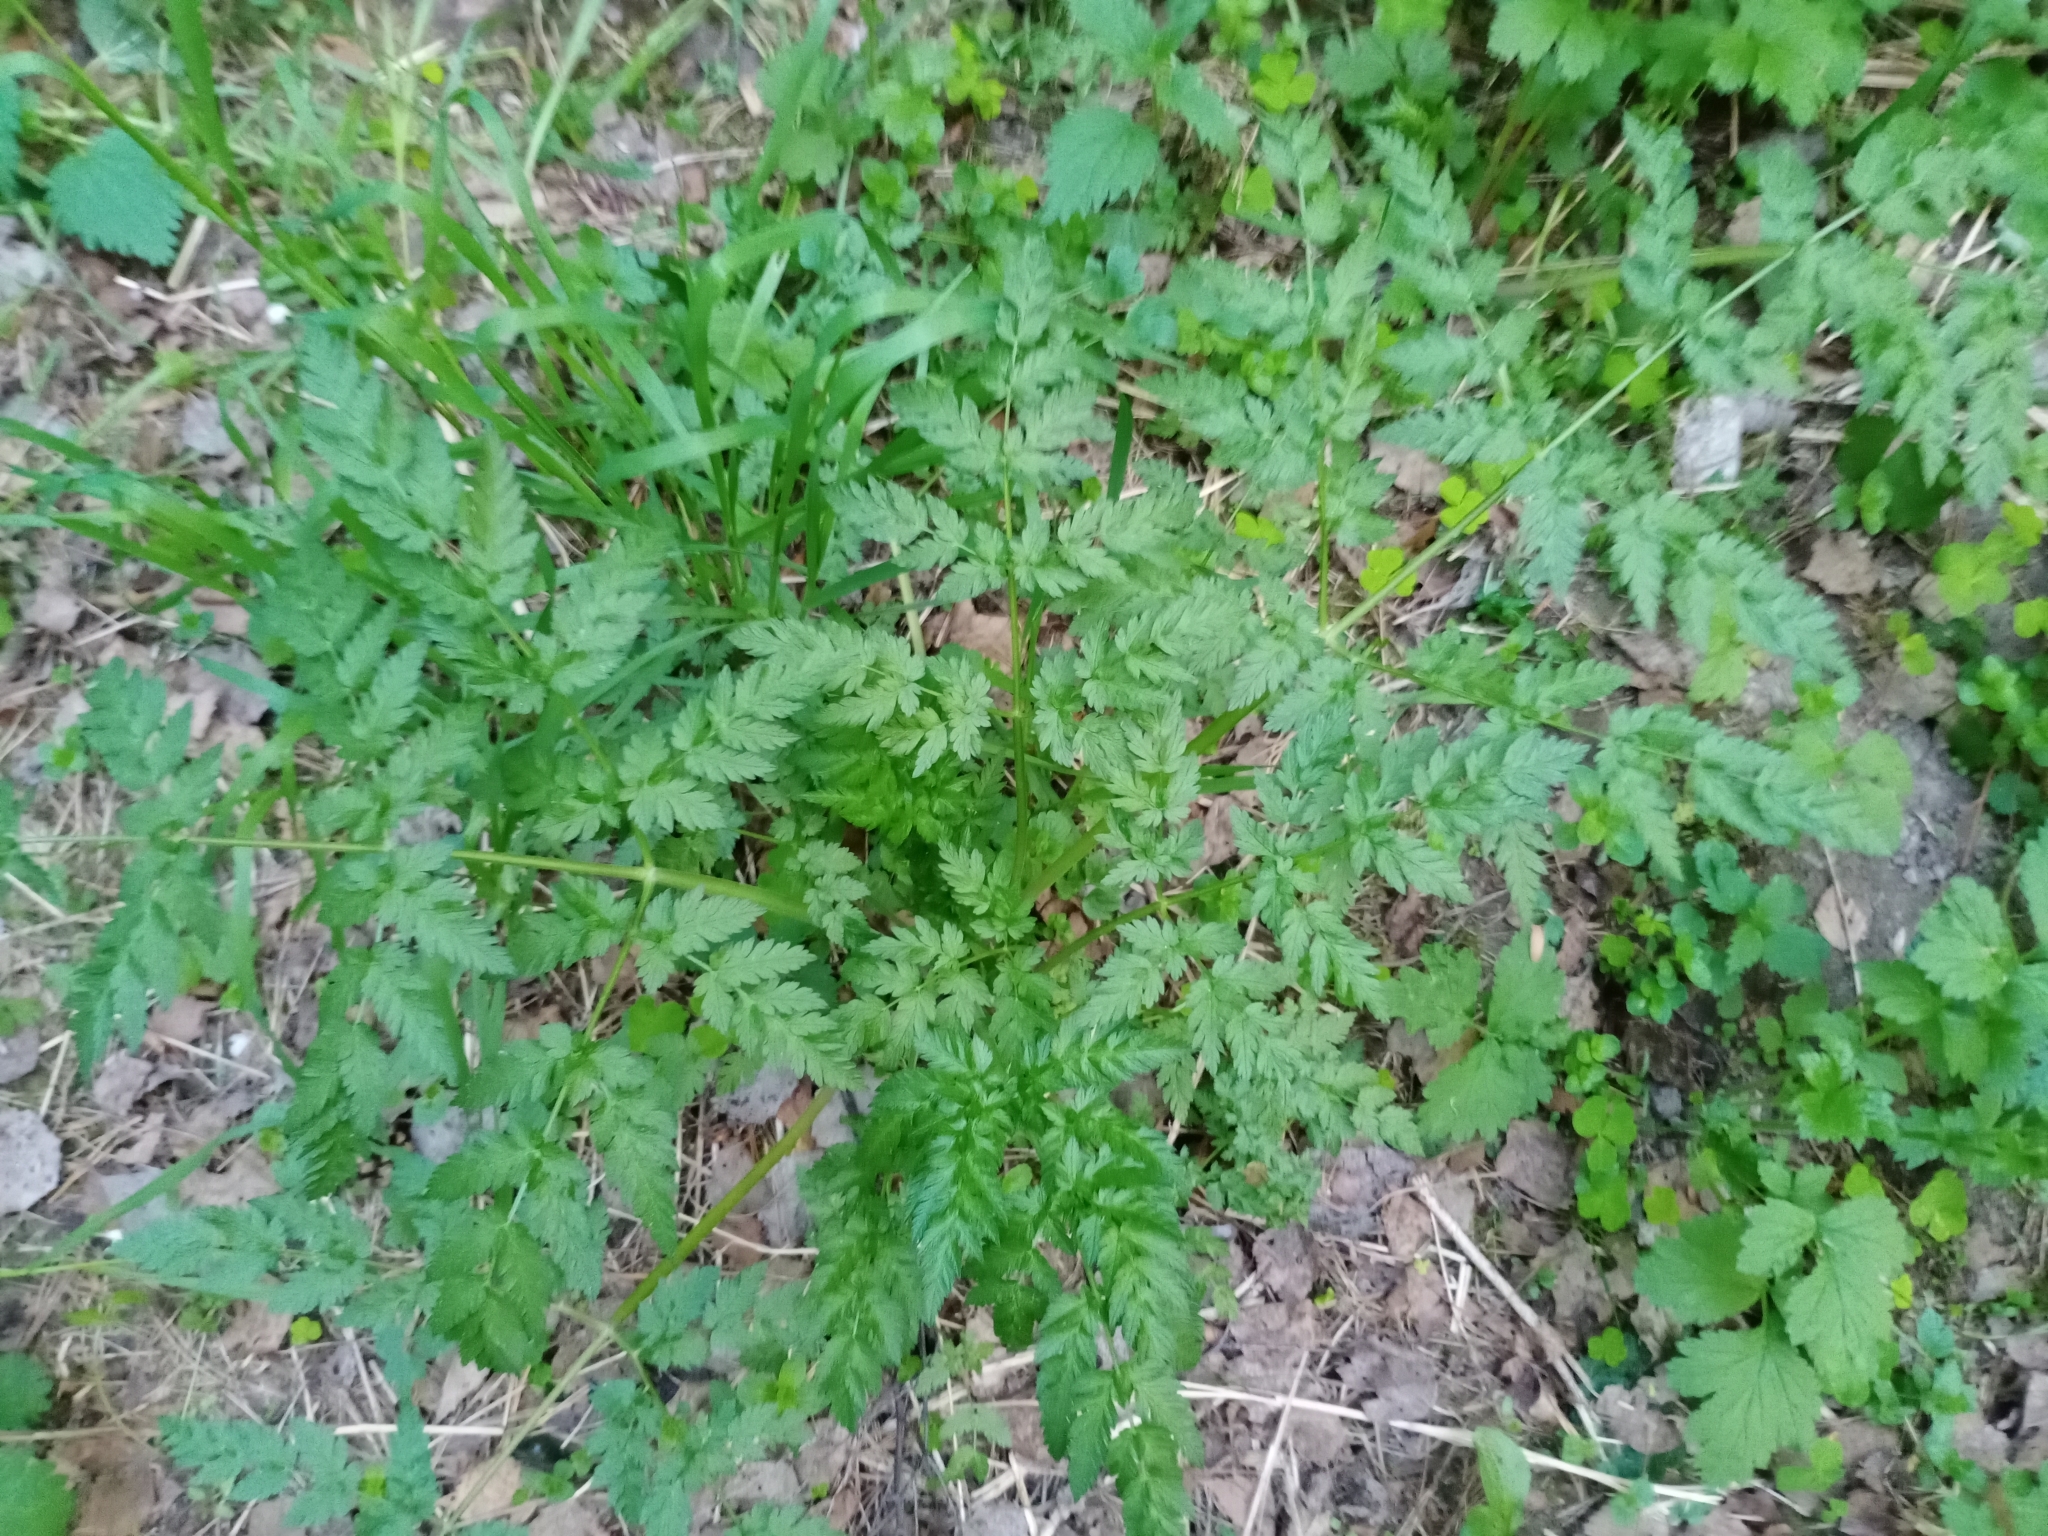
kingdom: Plantae
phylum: Tracheophyta
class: Magnoliopsida
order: Apiales
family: Apiaceae
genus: Anthriscus
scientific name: Anthriscus sylvestris
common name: Cow parsley
